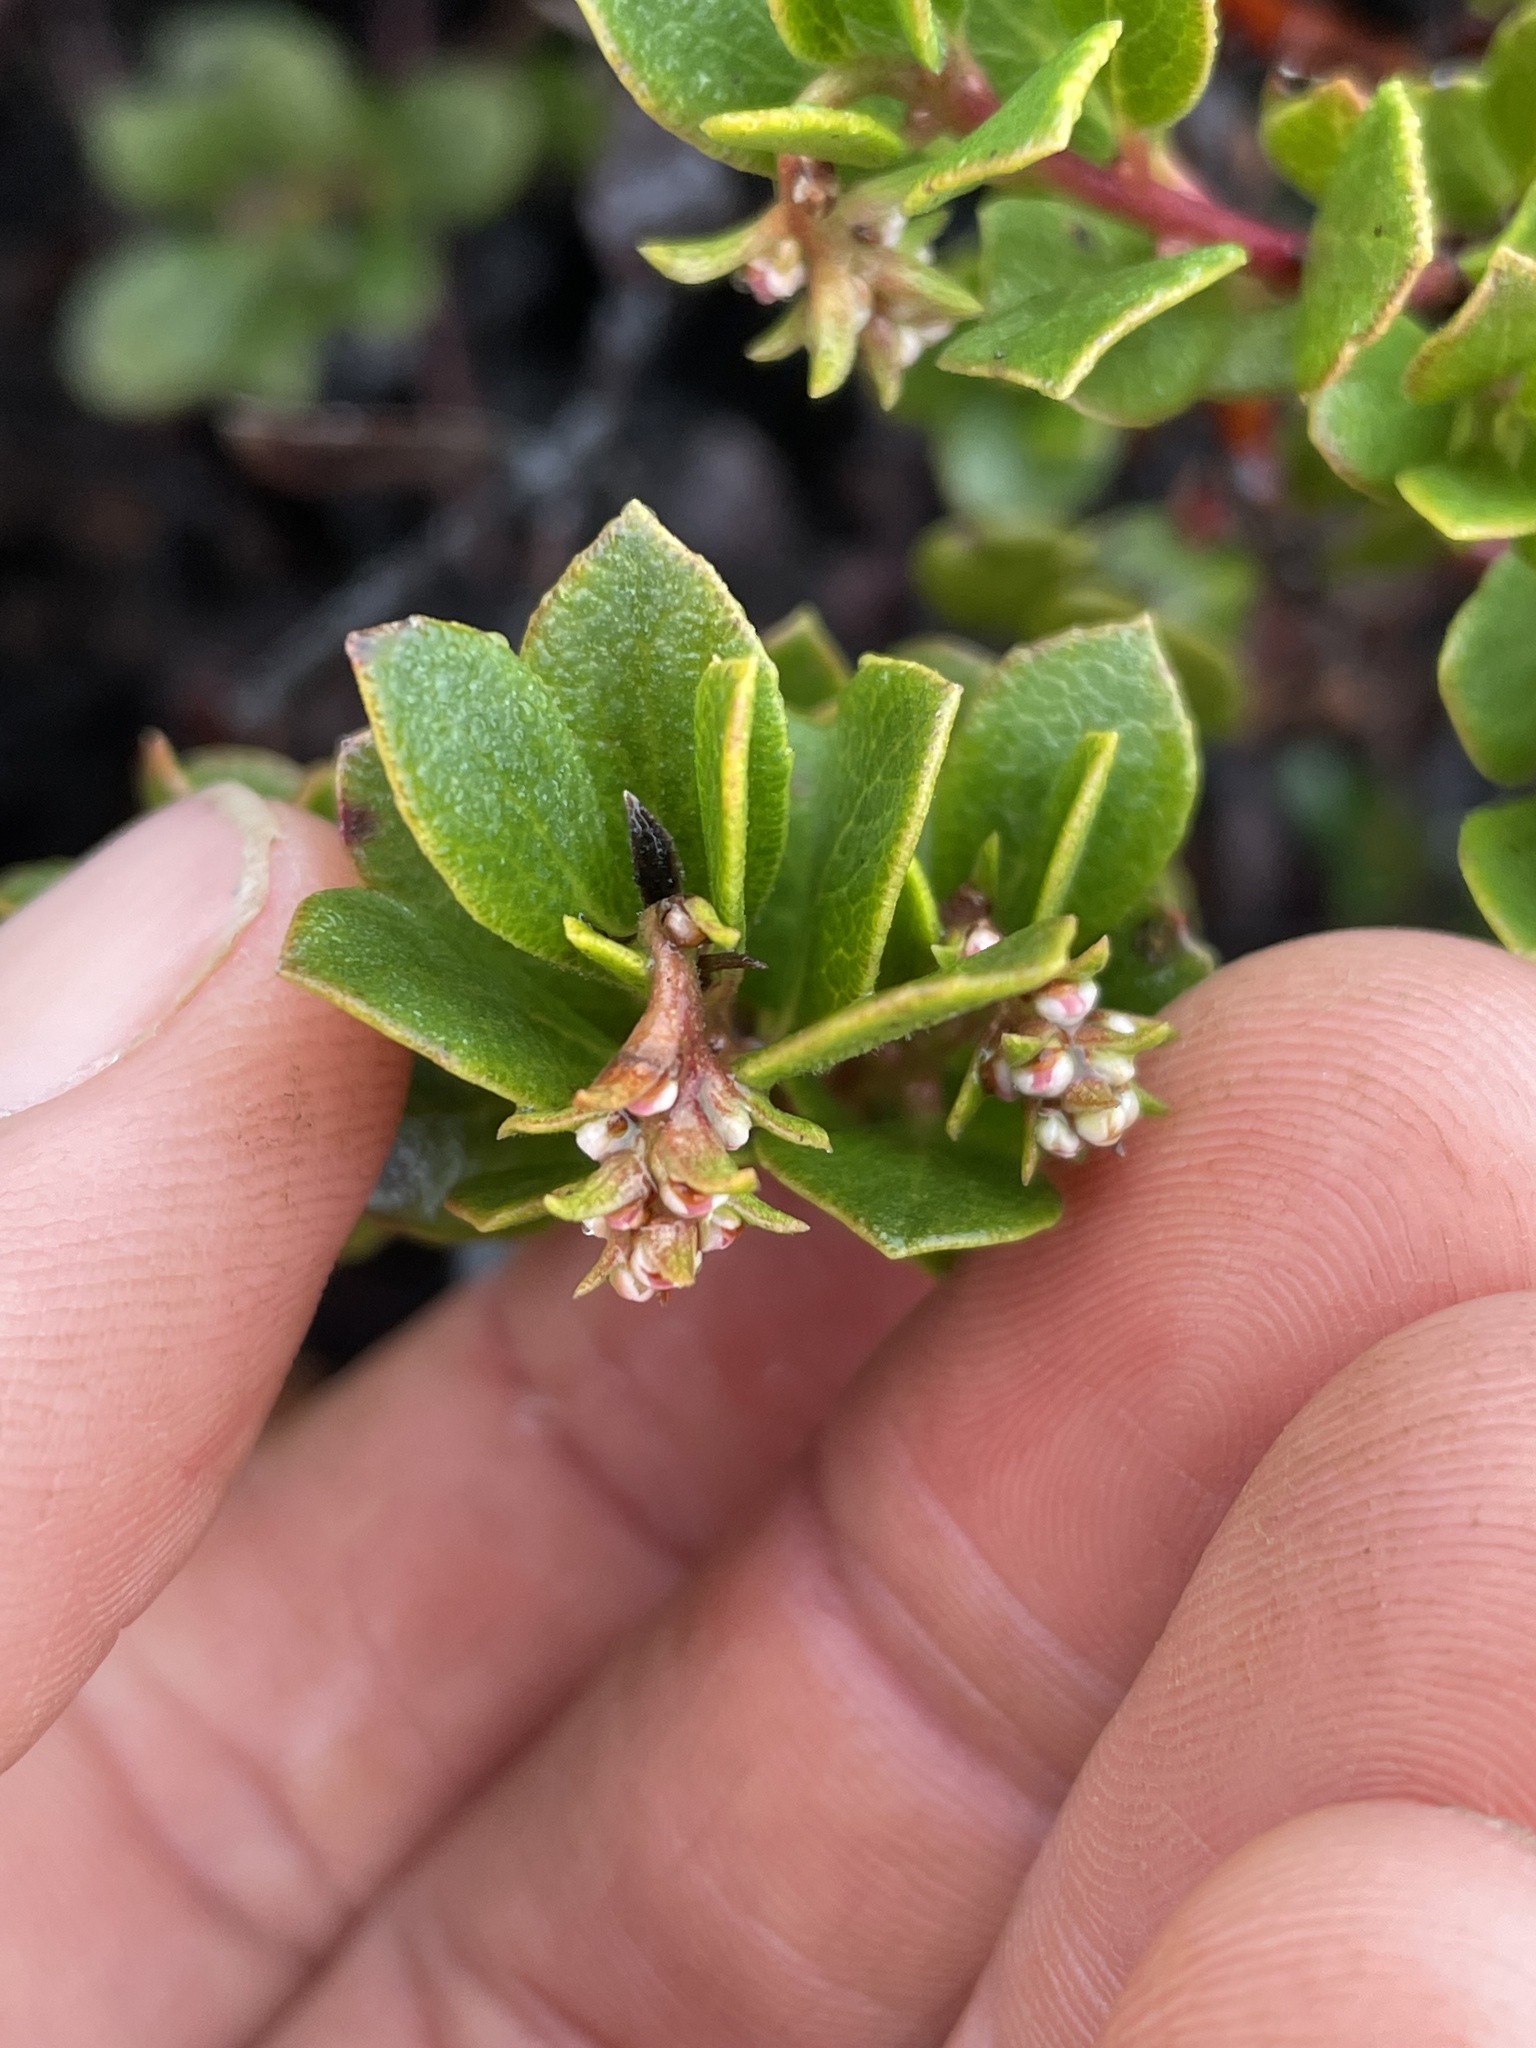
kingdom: Plantae
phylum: Tracheophyta
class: Magnoliopsida
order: Ericales
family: Ericaceae
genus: Arctostaphylos
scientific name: Arctostaphylos pacifica
